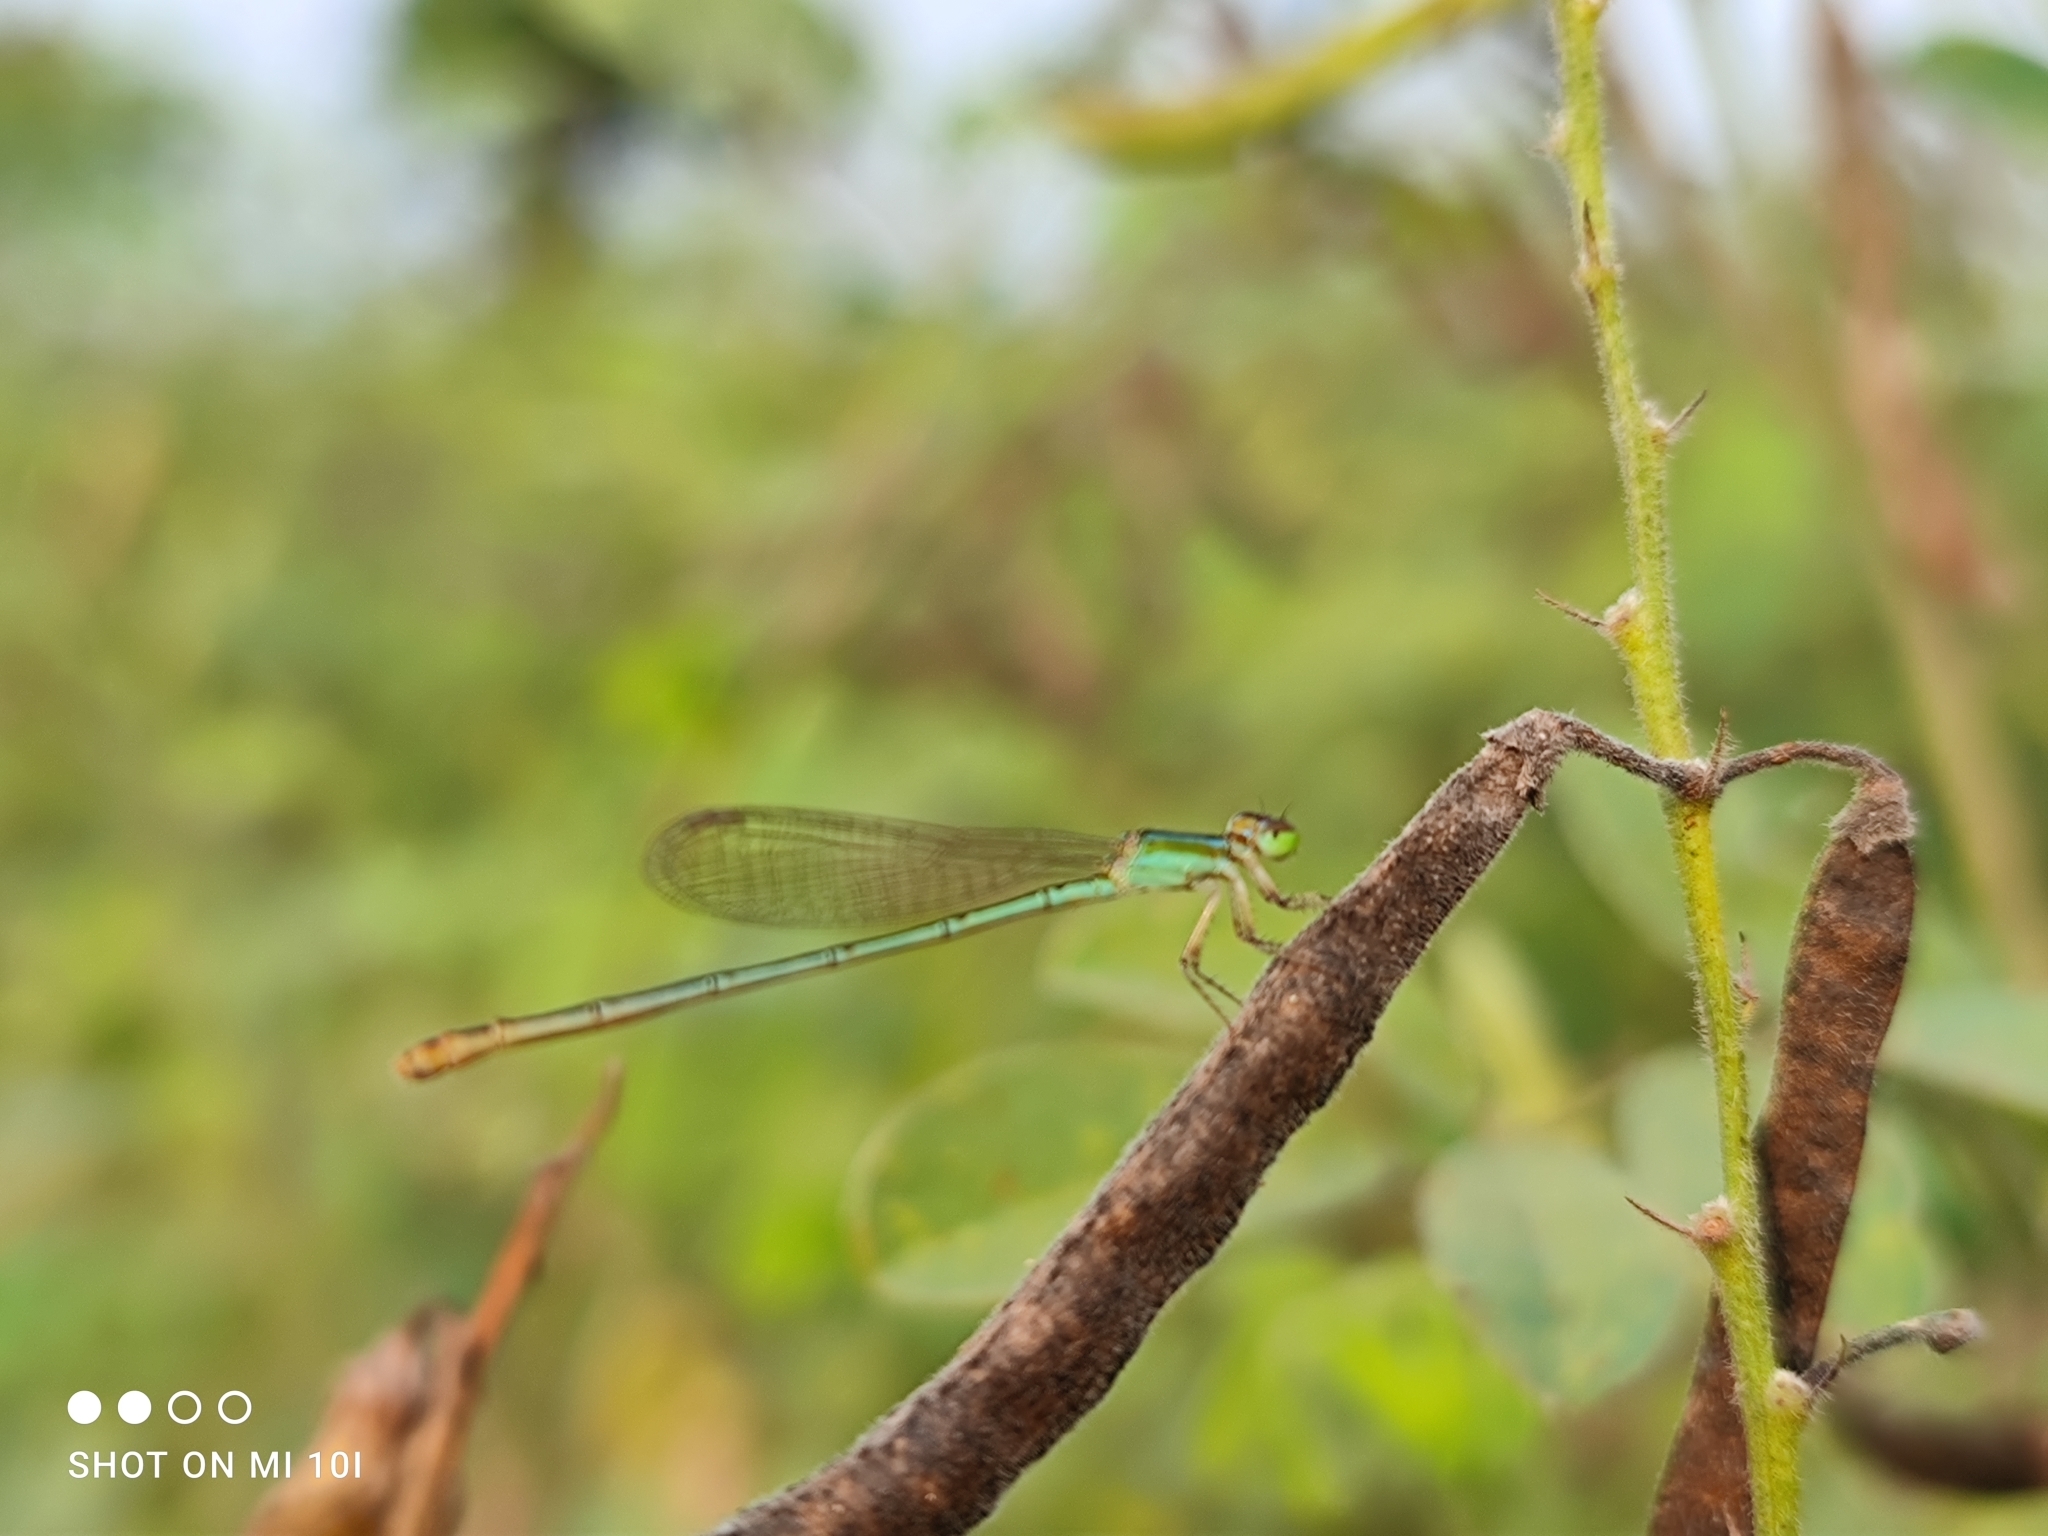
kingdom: Animalia
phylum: Arthropoda
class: Insecta
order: Odonata
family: Coenagrionidae
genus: Agriocnemis
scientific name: Agriocnemis pygmaea
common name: Pygmy wisp
